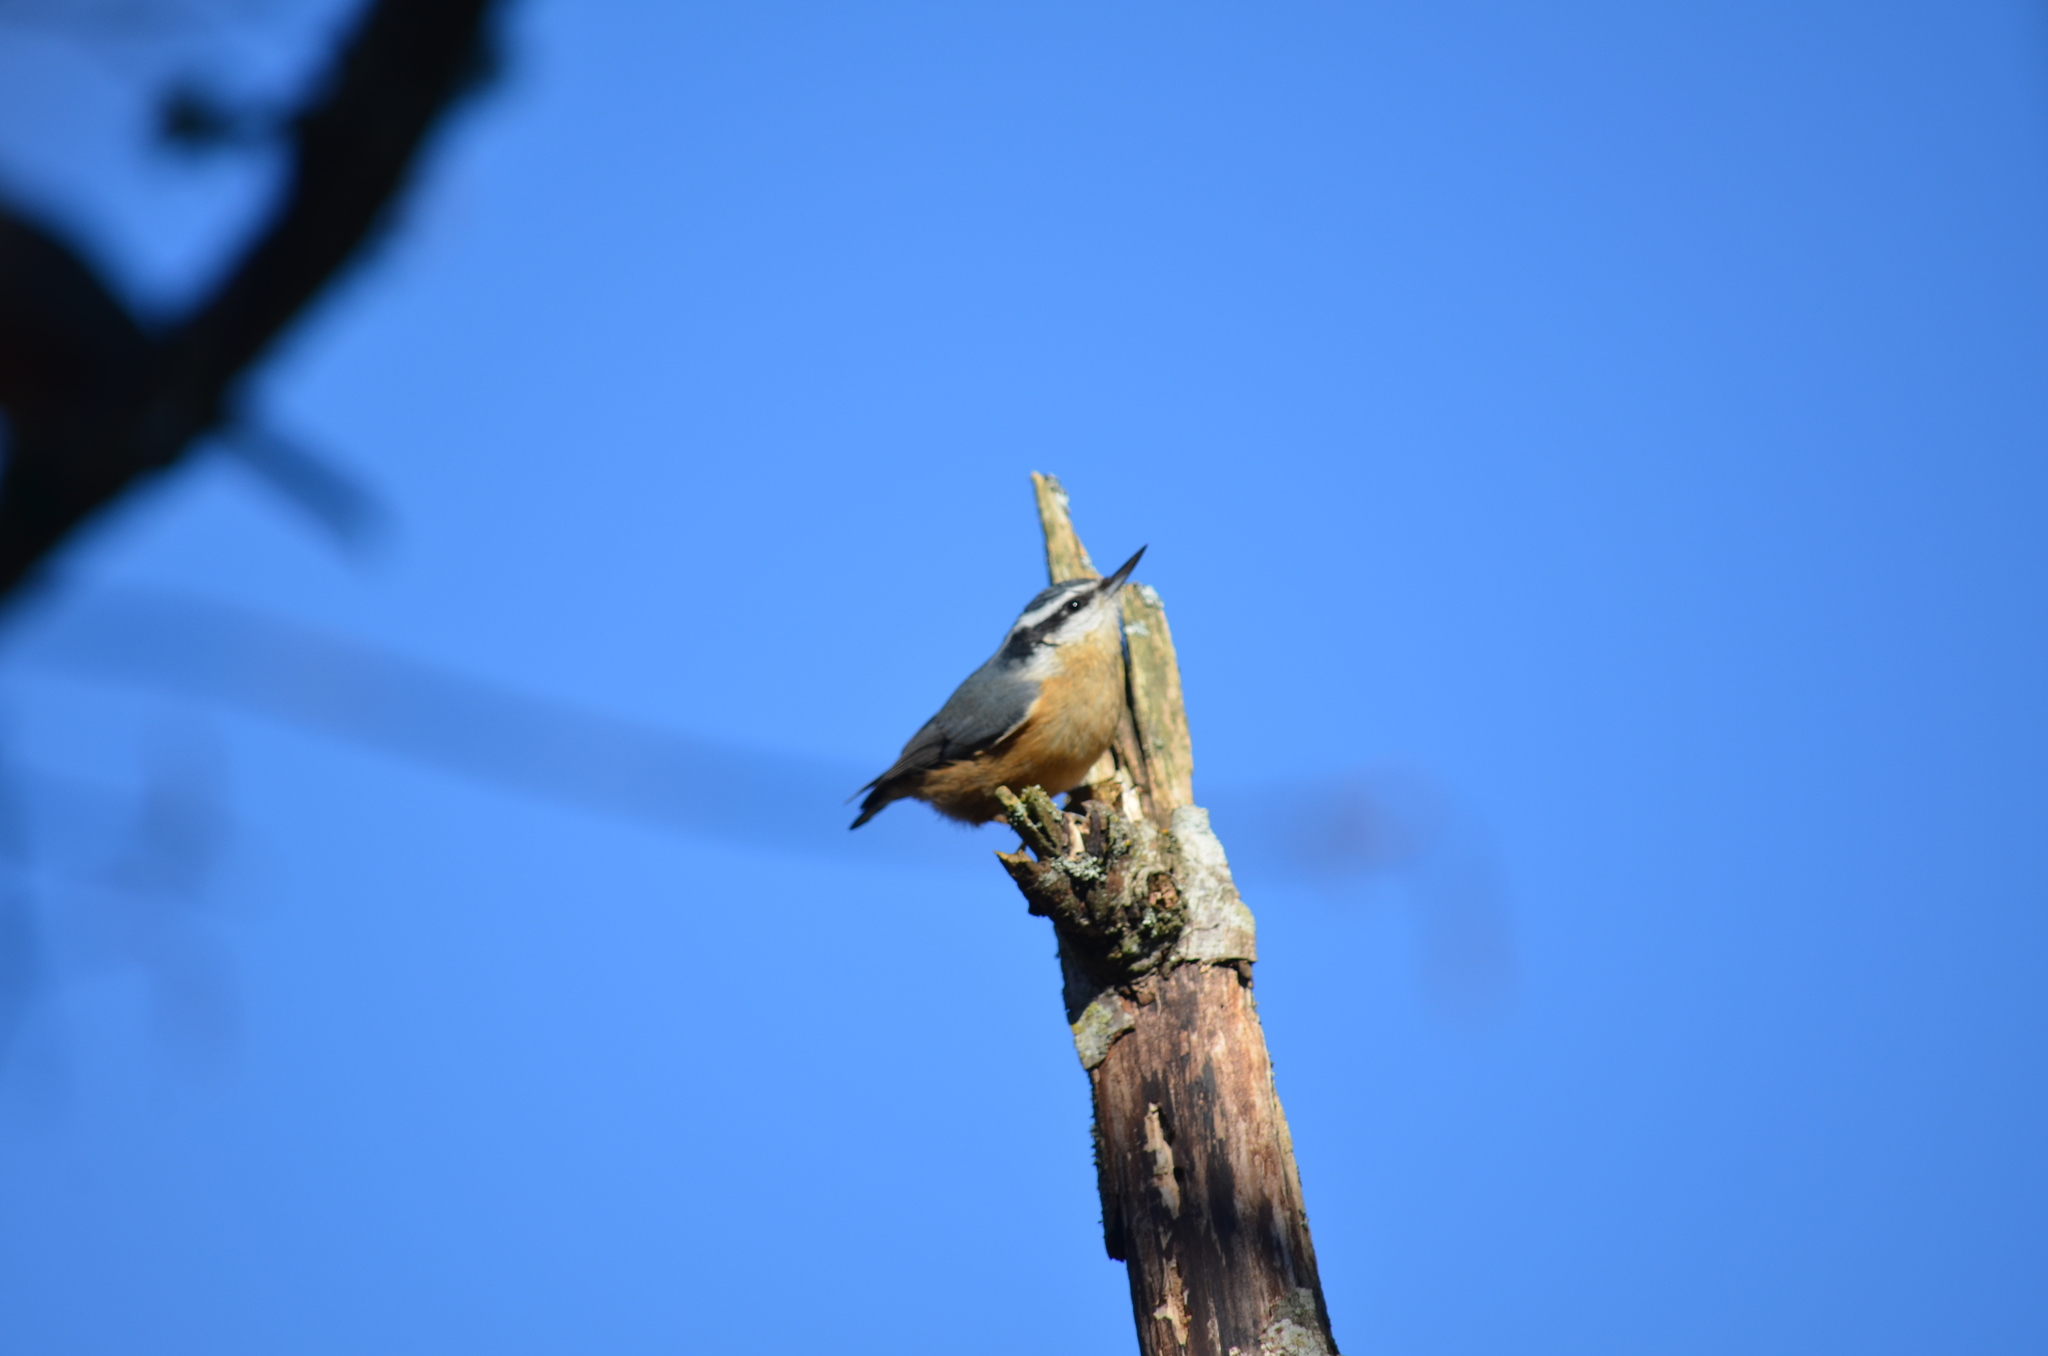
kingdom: Animalia
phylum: Chordata
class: Aves
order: Passeriformes
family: Sittidae
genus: Sitta
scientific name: Sitta canadensis
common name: Red-breasted nuthatch
